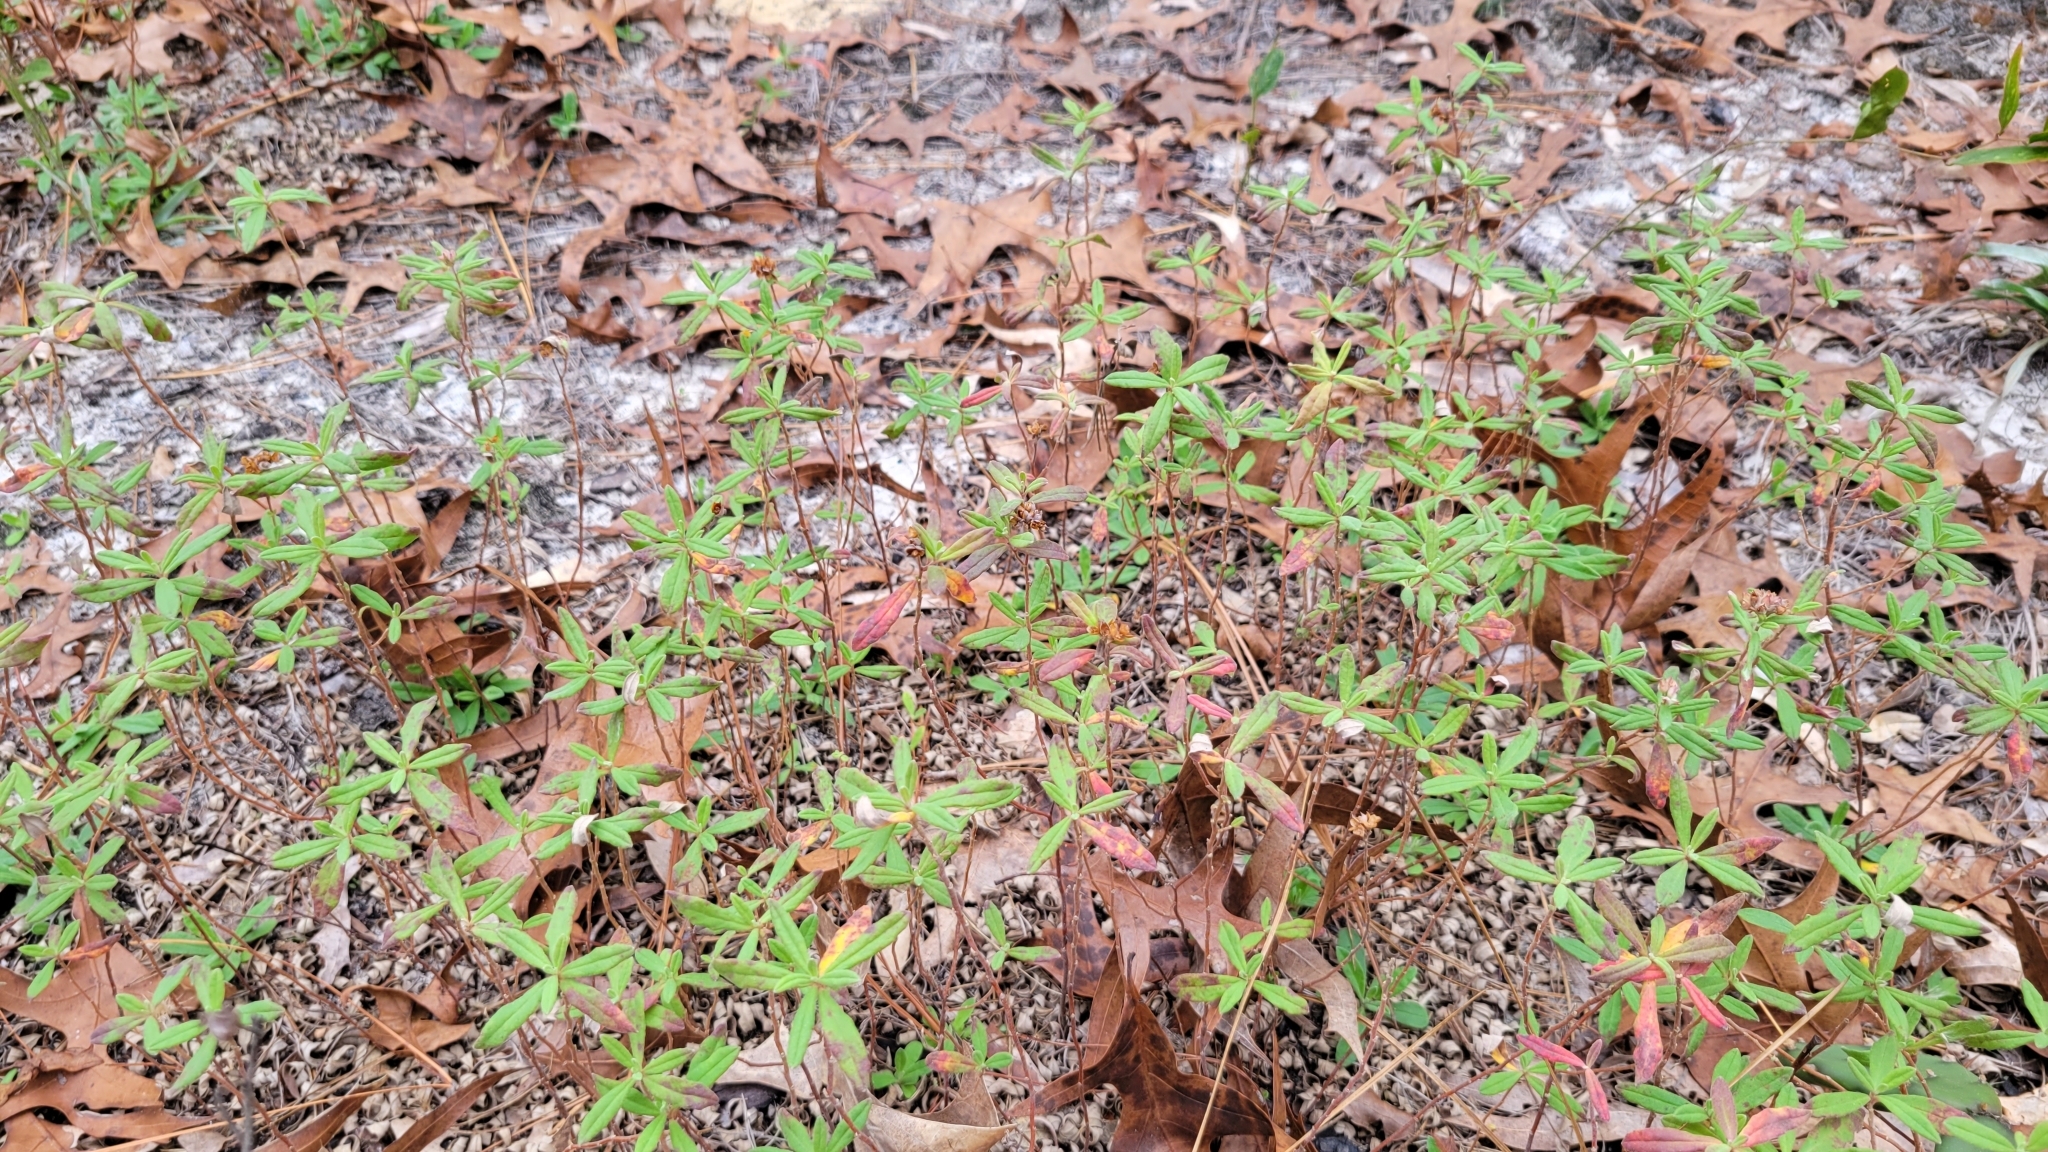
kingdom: Plantae
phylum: Tracheophyta
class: Magnoliopsida
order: Malvales
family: Cistaceae
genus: Crocanthemum
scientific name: Crocanthemum corymbosum
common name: Pinebarren sun-rose
